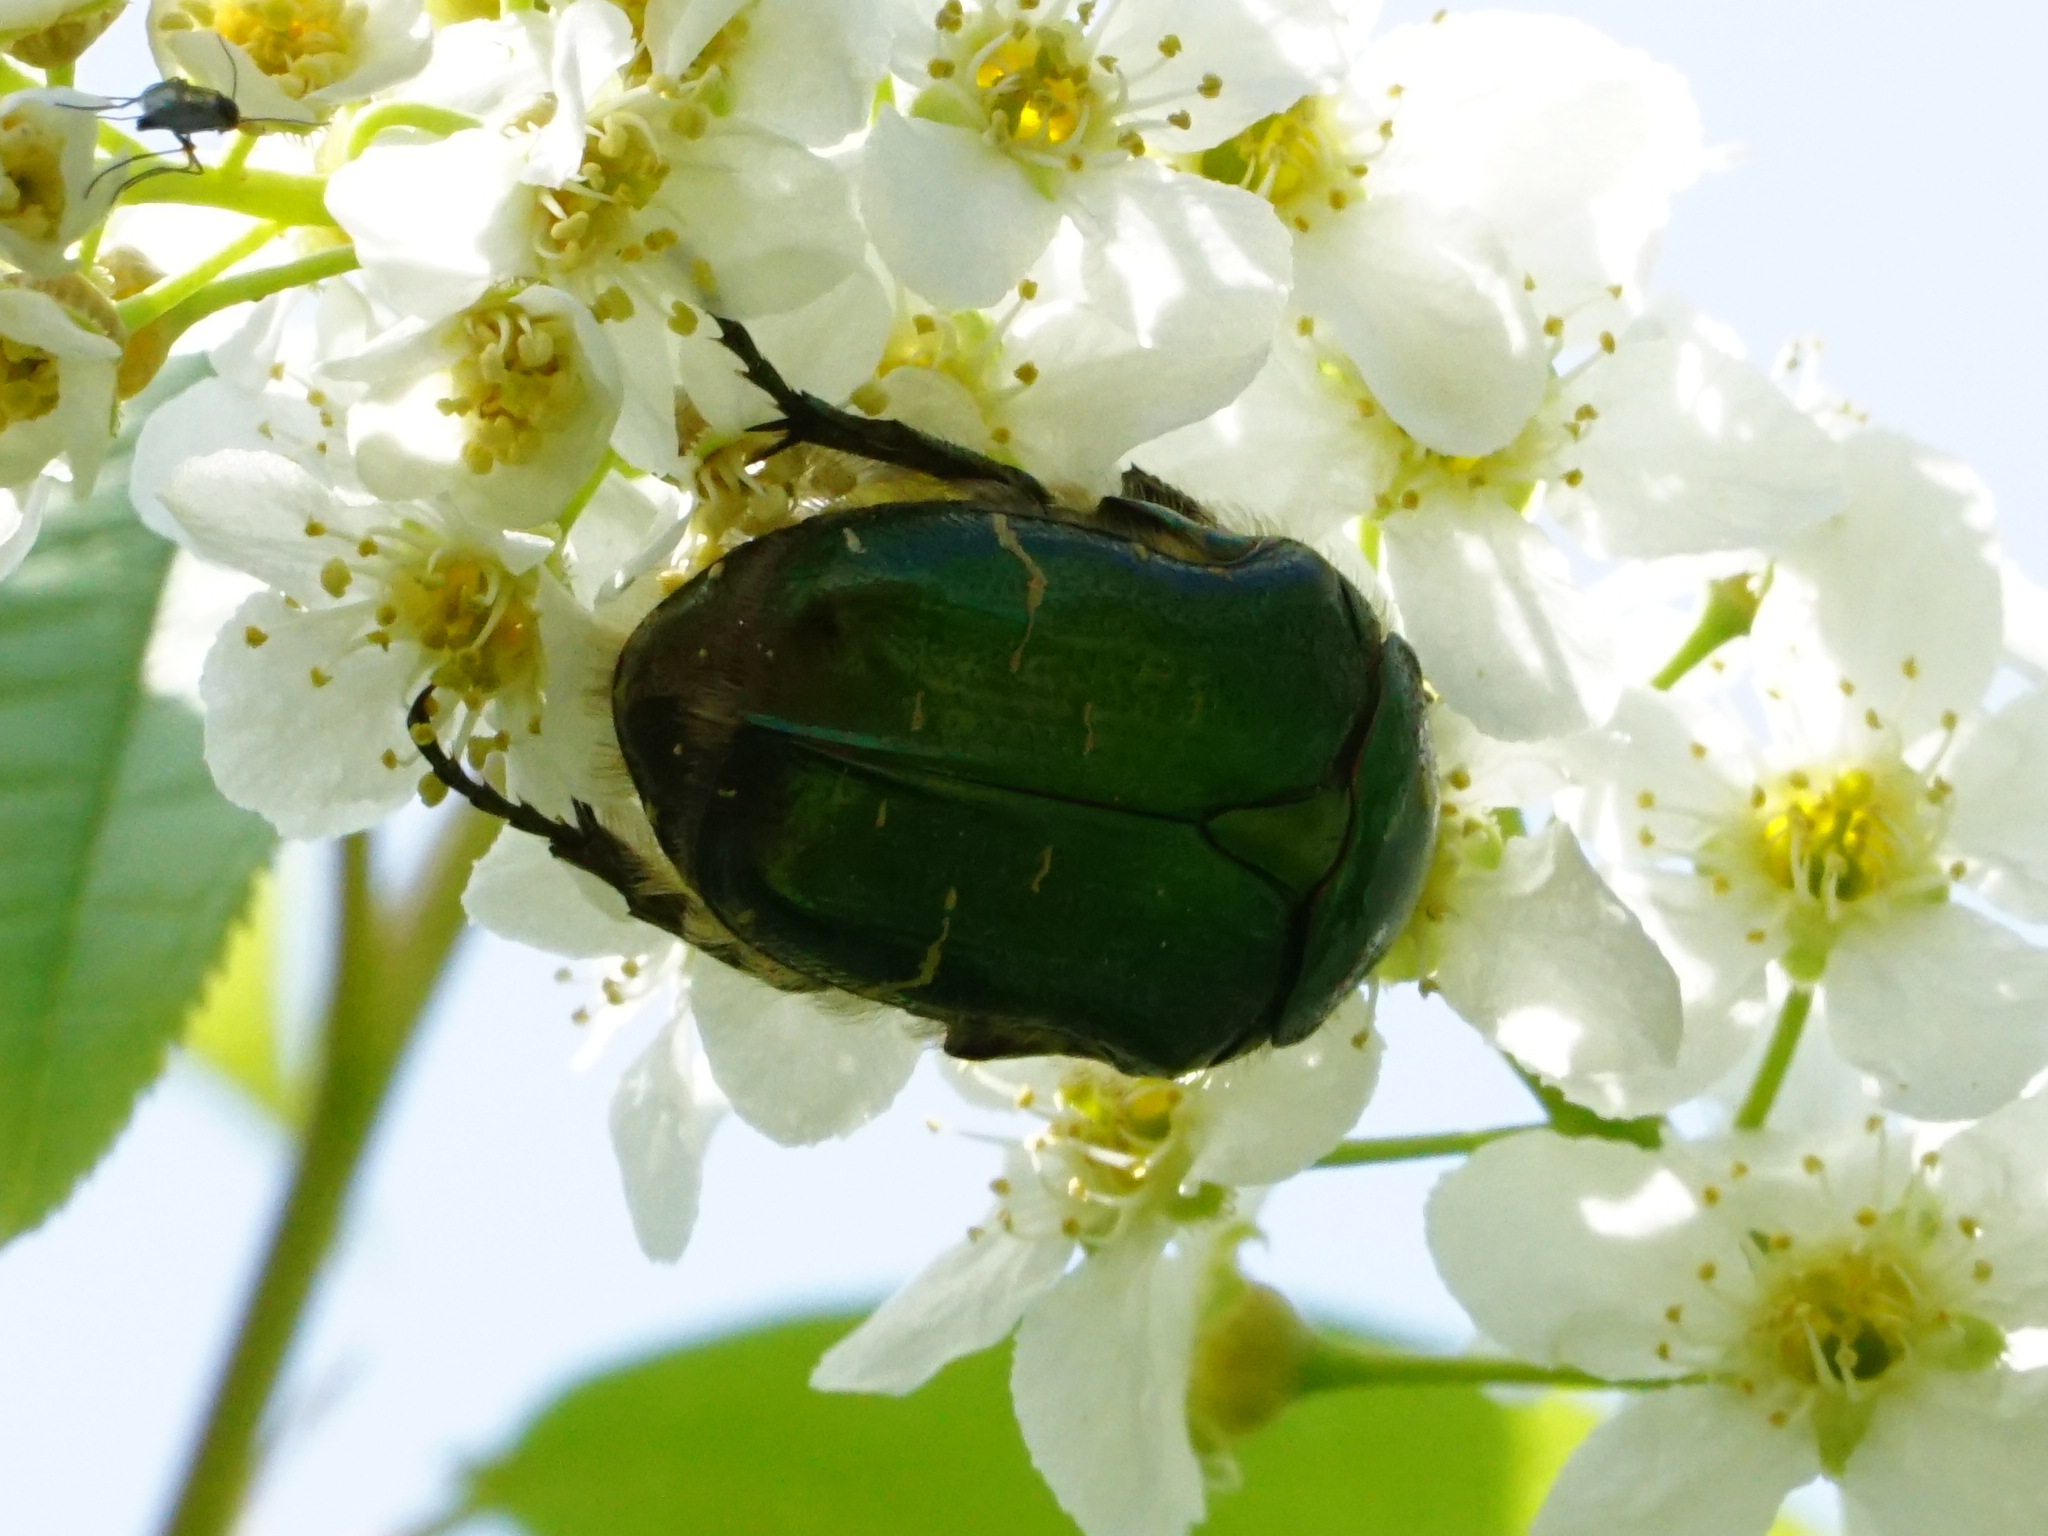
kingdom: Animalia
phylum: Arthropoda
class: Insecta
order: Coleoptera
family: Scarabaeidae
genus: Cetonia
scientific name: Cetonia aurata
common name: Rose chafer
